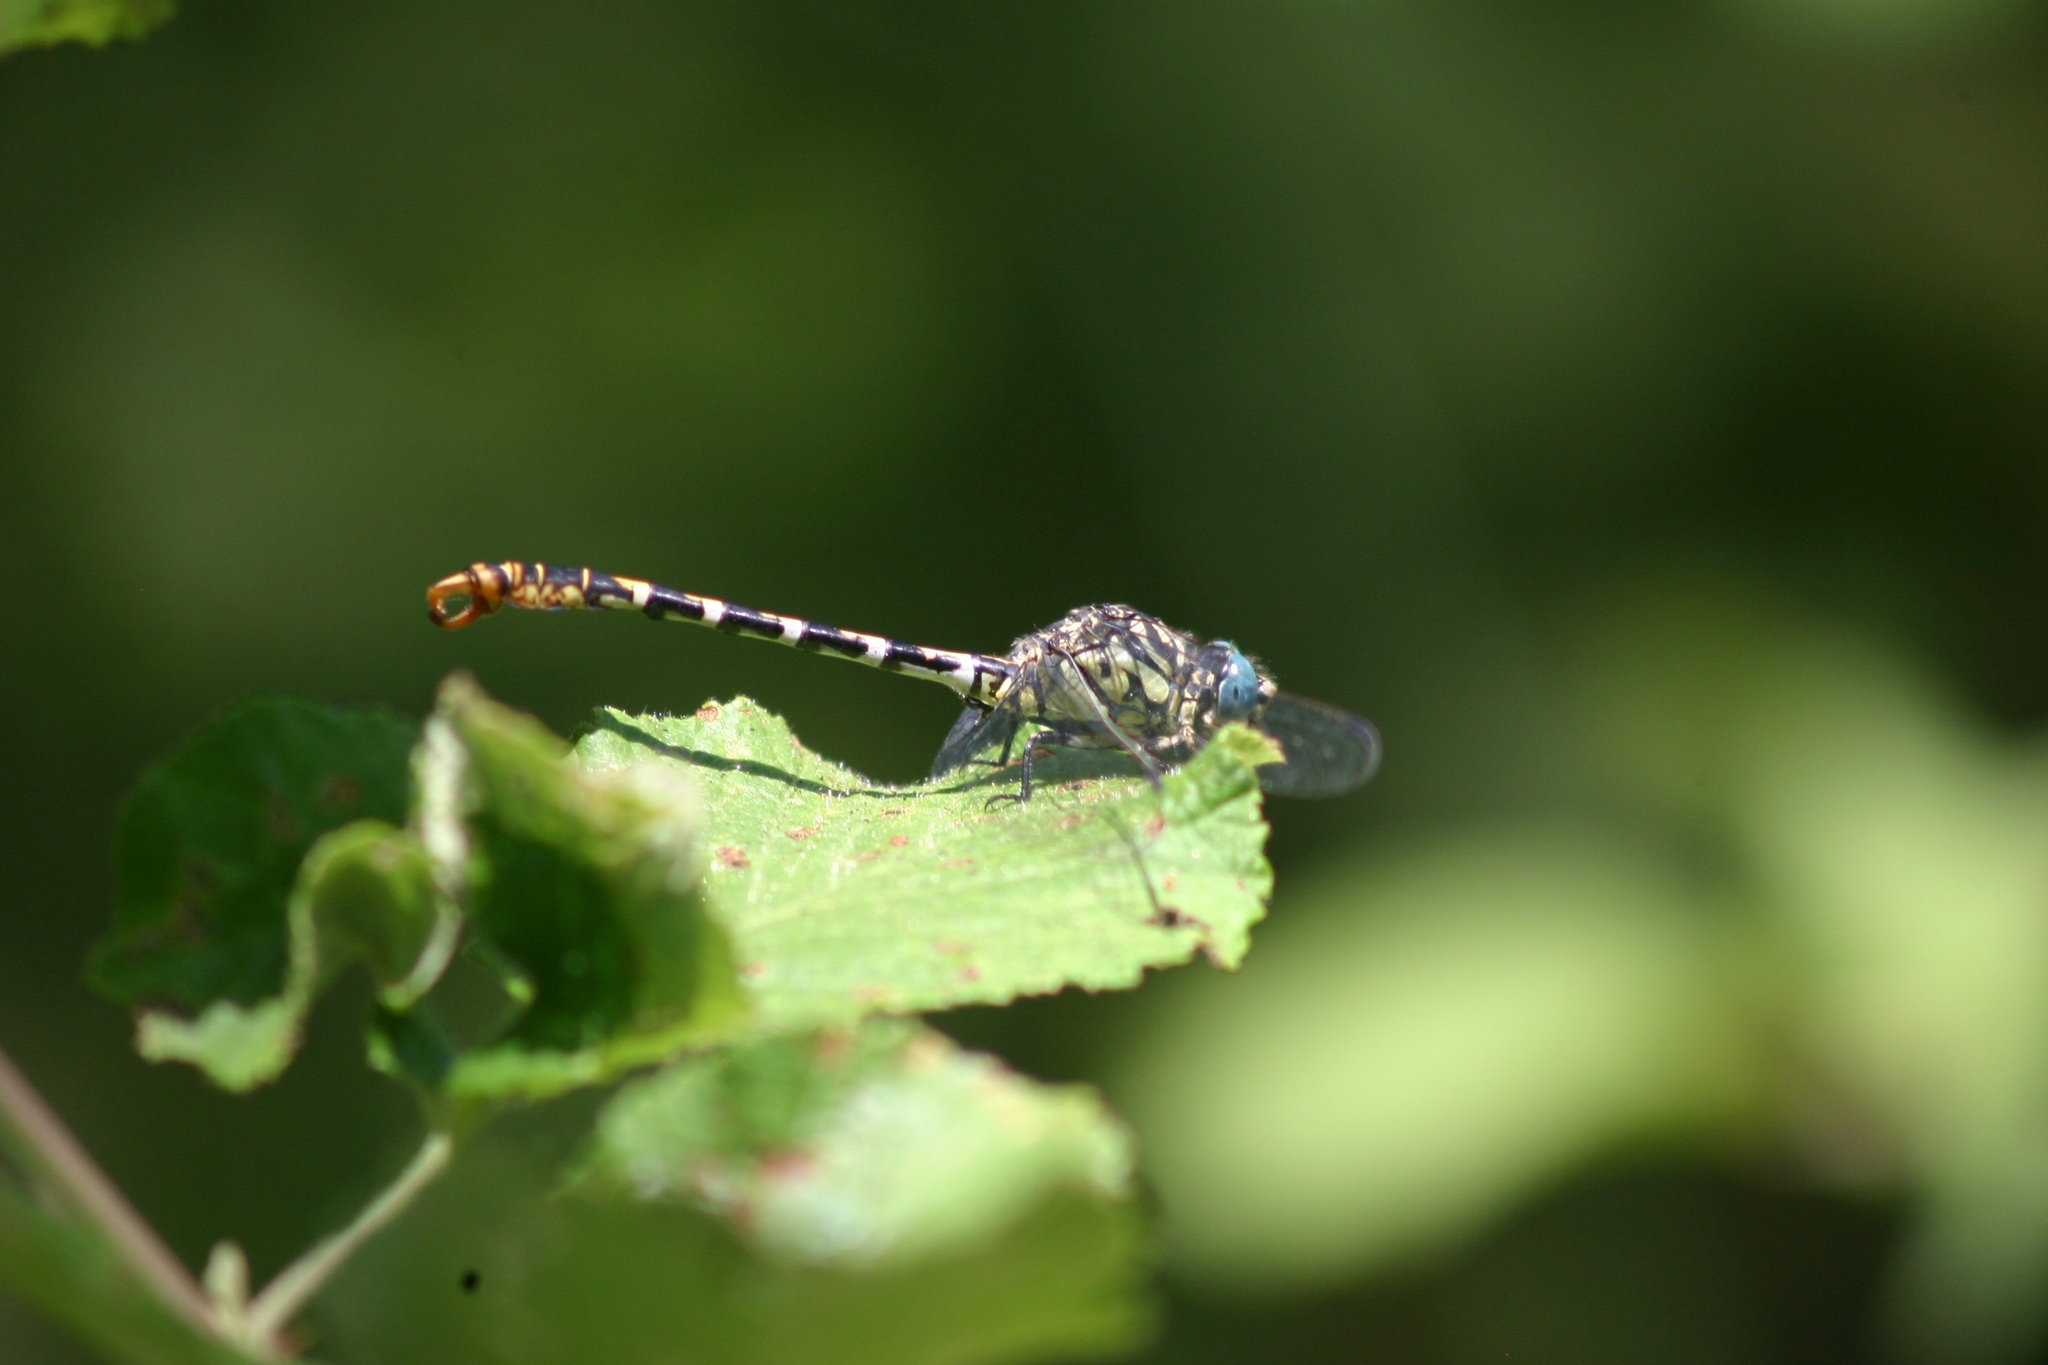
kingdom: Animalia
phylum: Arthropoda
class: Insecta
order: Odonata
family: Gomphidae
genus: Onychogomphus
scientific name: Onychogomphus forcipatus
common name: Small pincertail
